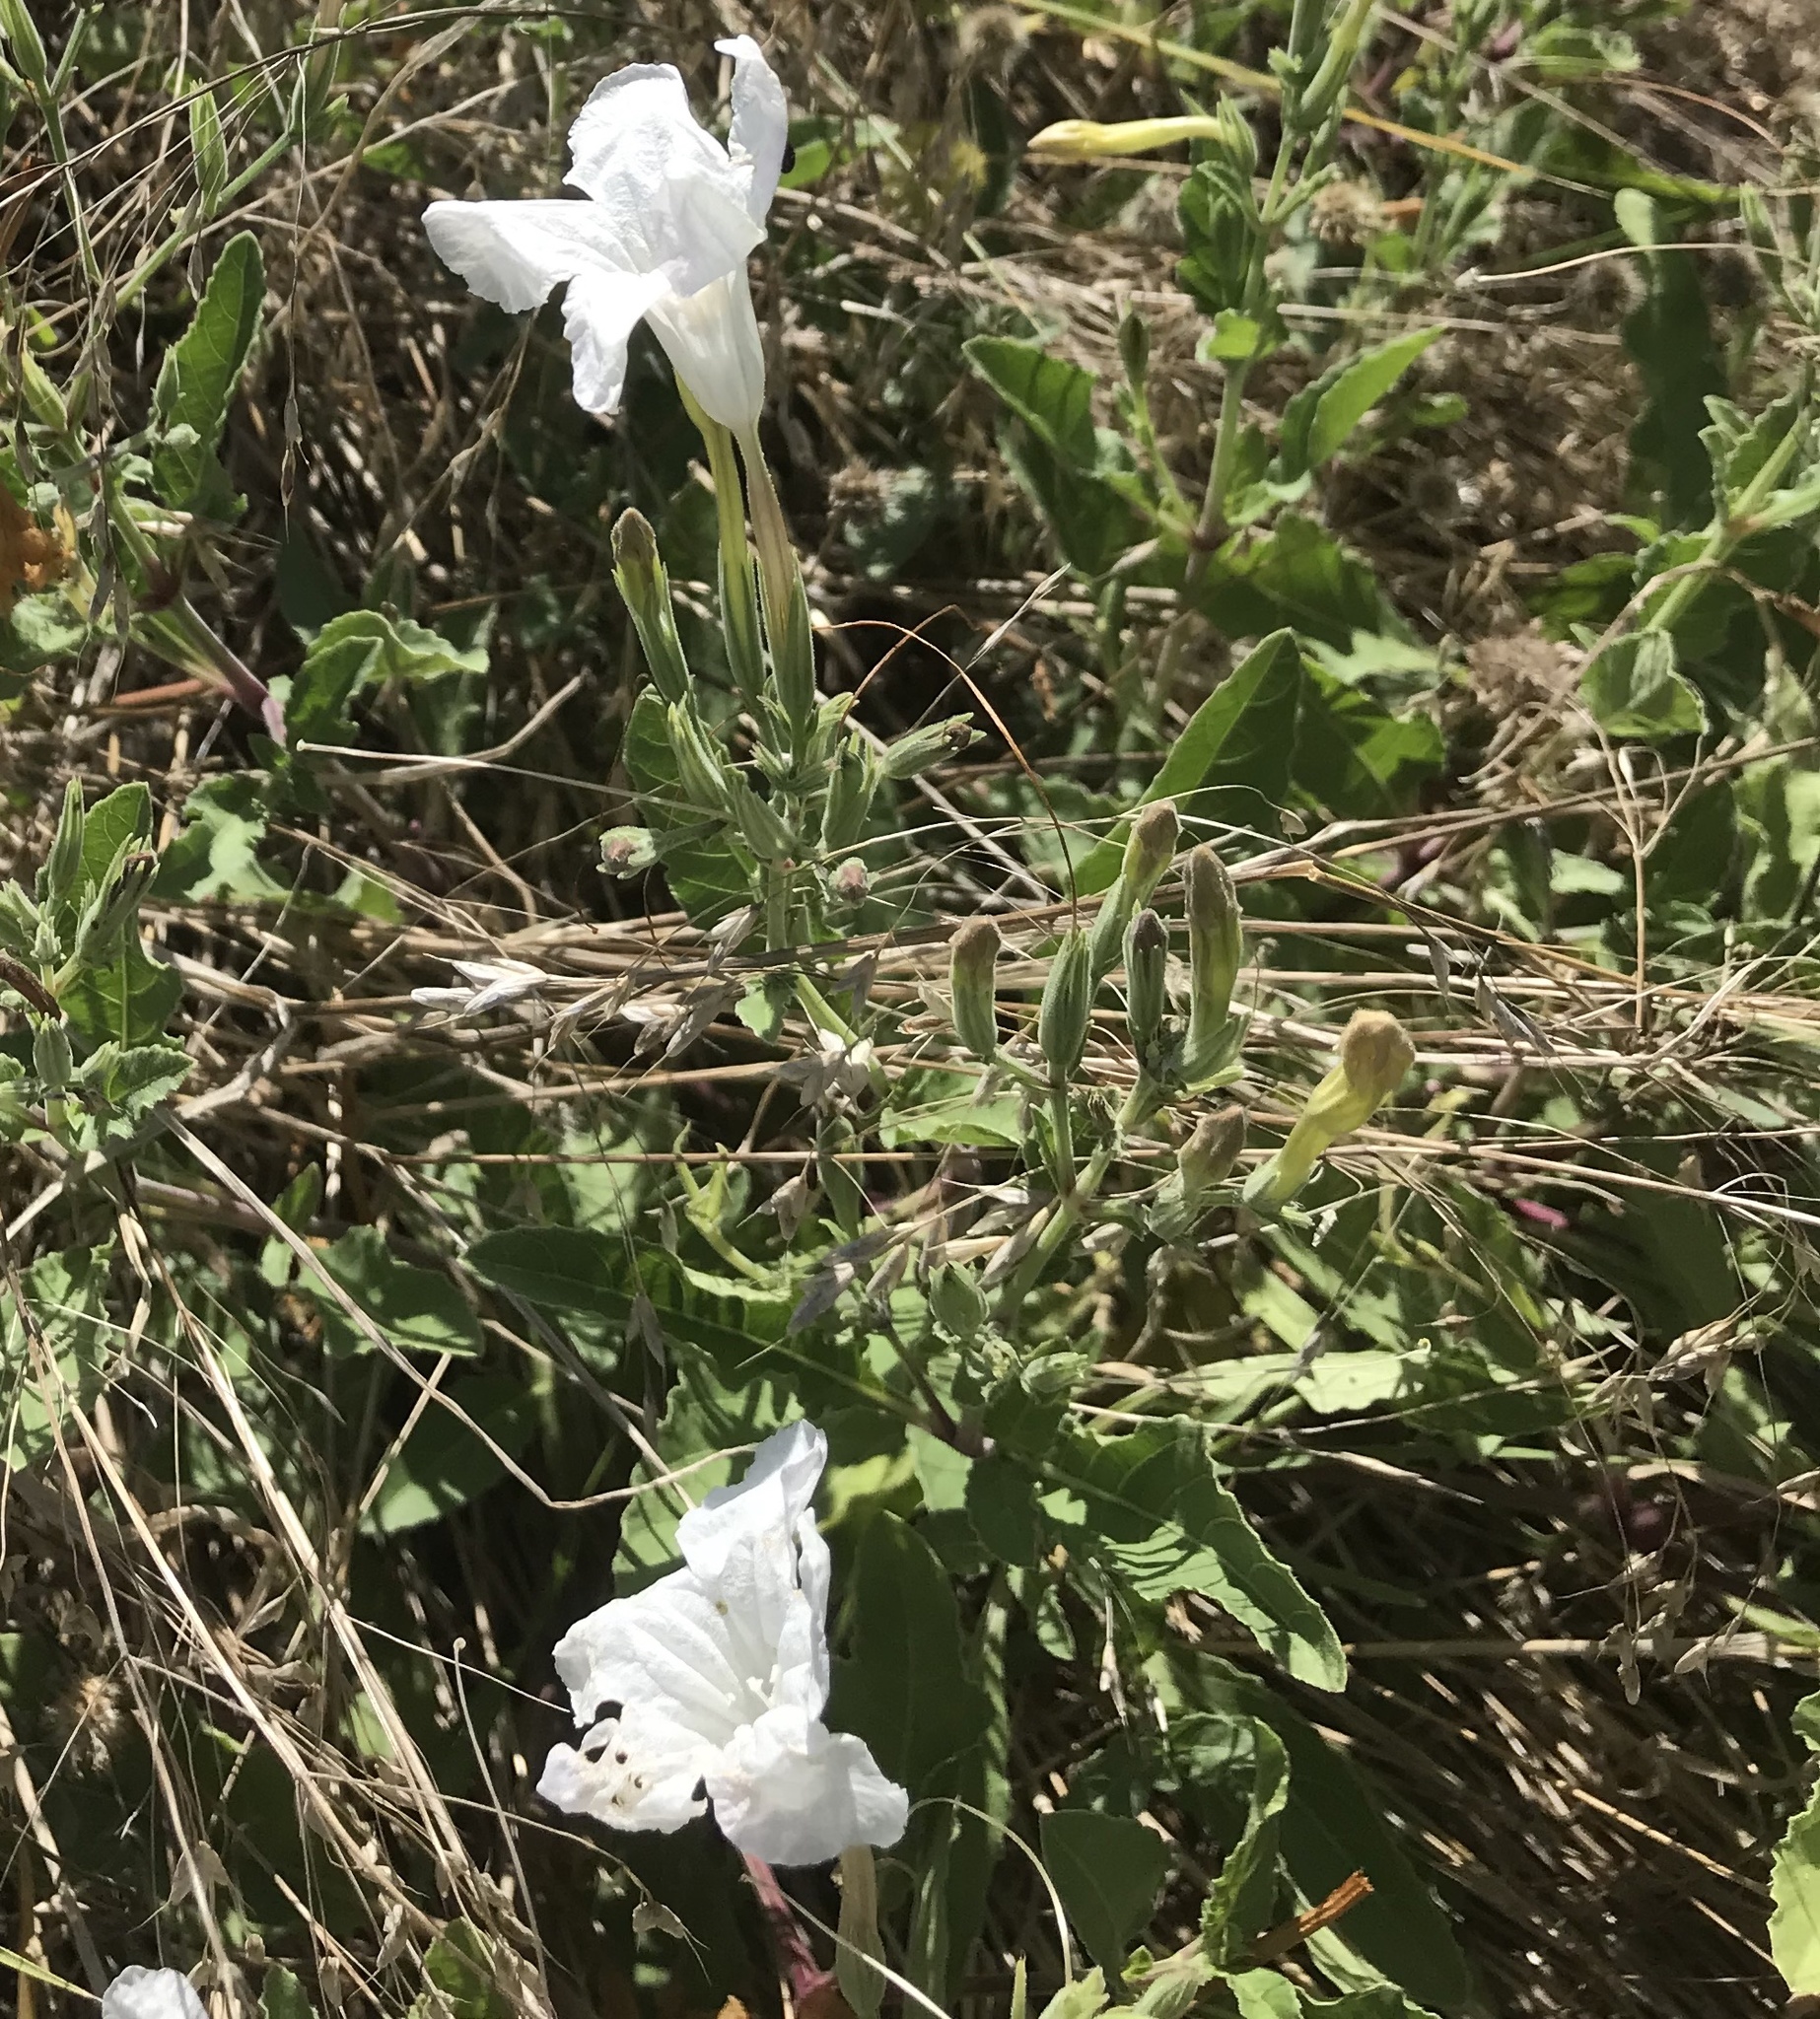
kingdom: Plantae
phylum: Tracheophyta
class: Magnoliopsida
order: Lamiales
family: Acanthaceae
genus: Ruellia
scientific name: Ruellia metziae
